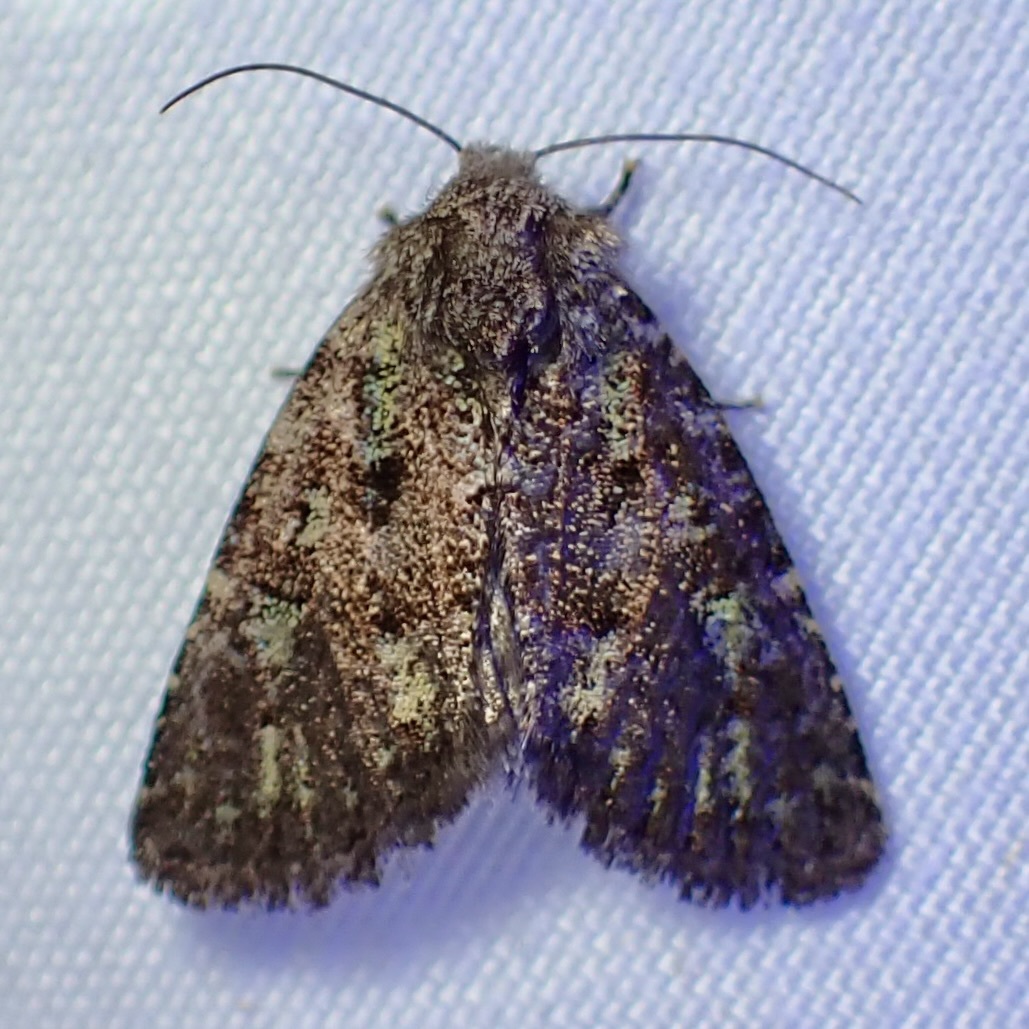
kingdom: Animalia
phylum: Arthropoda
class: Insecta
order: Lepidoptera
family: Noctuidae
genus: Paramiana
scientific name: Paramiana smaragdina
